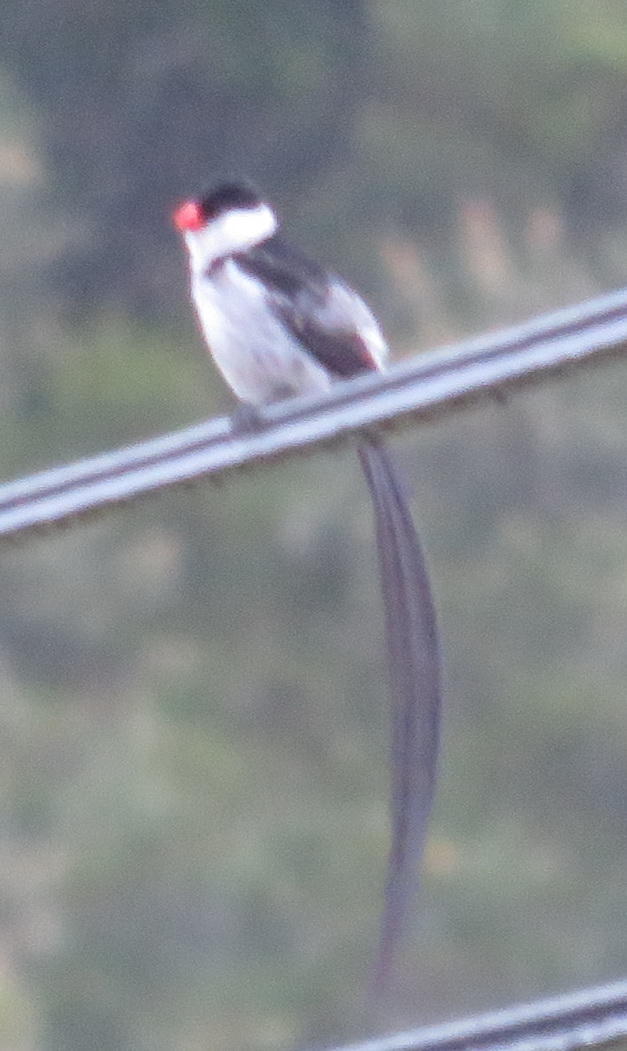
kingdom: Animalia
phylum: Chordata
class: Aves
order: Passeriformes
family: Viduidae
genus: Vidua
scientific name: Vidua macroura
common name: Pin-tailed whydah
